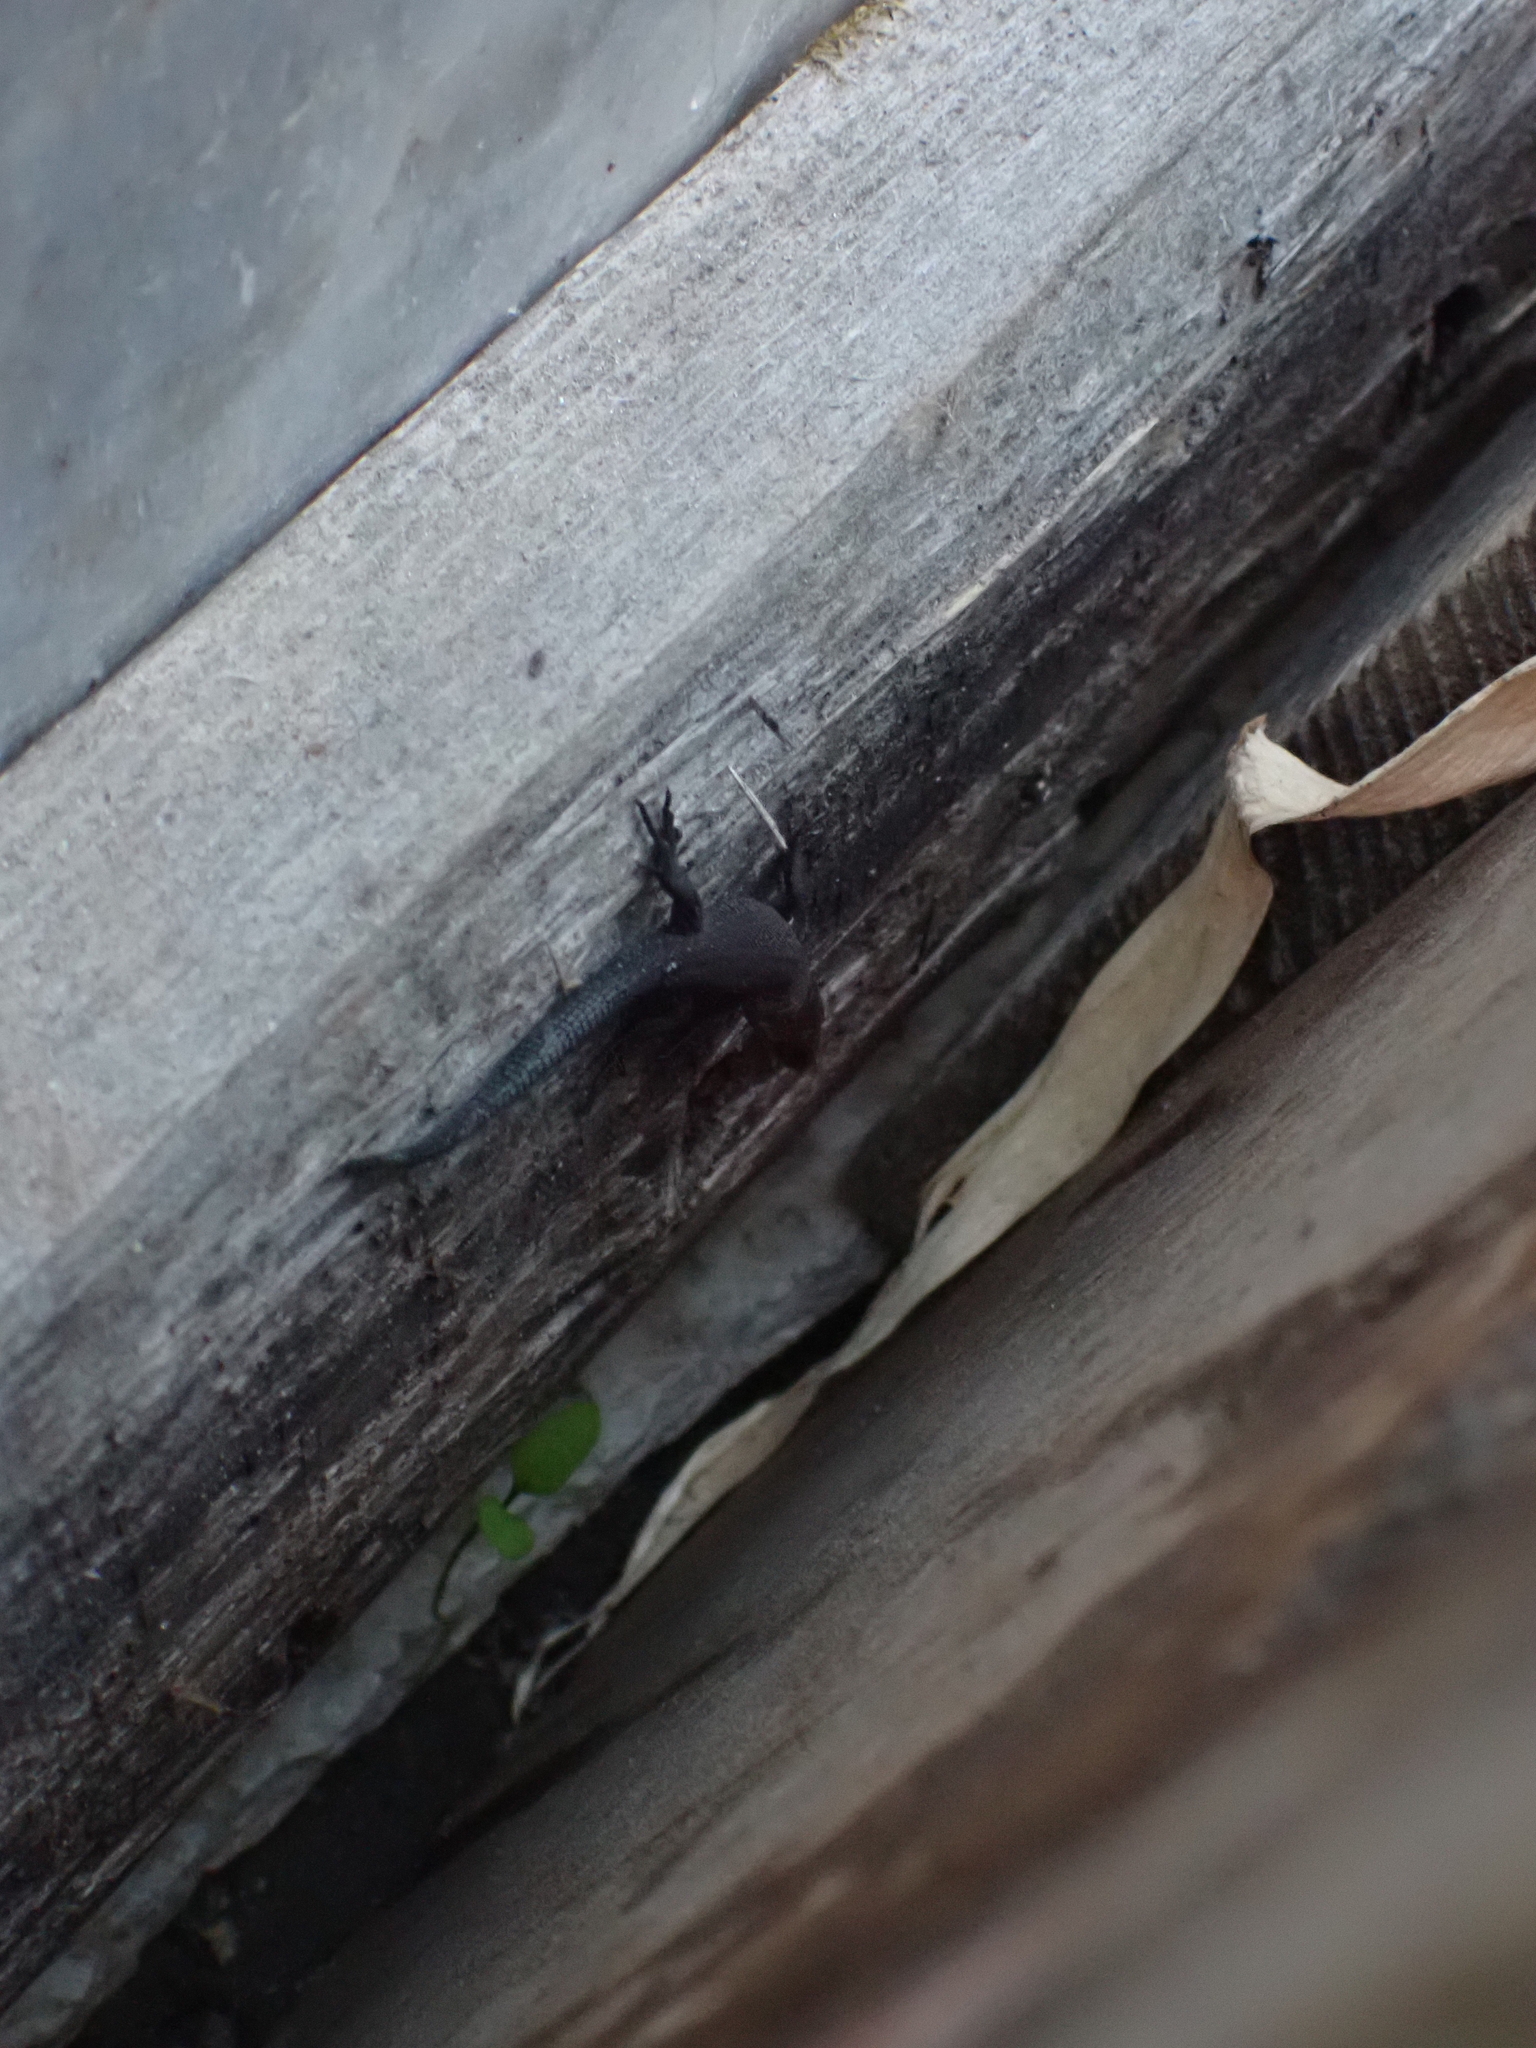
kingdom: Animalia
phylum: Chordata
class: Squamata
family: Lacertidae
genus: Zootoca
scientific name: Zootoca vivipara
